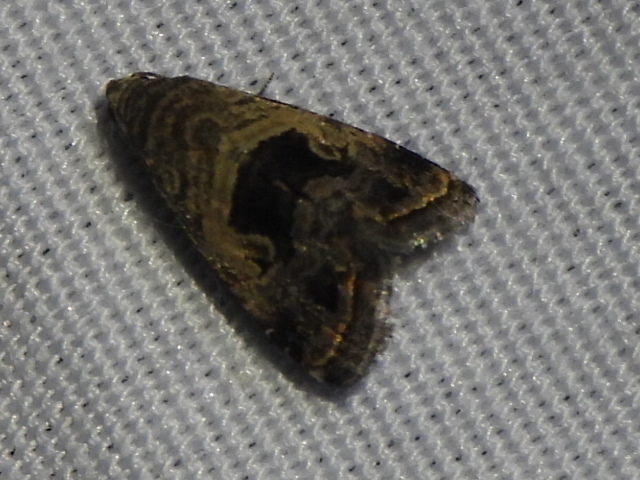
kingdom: Animalia
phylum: Arthropoda
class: Insecta
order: Lepidoptera
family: Noctuidae
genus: Tripudia
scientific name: Tripudia quadrifera
